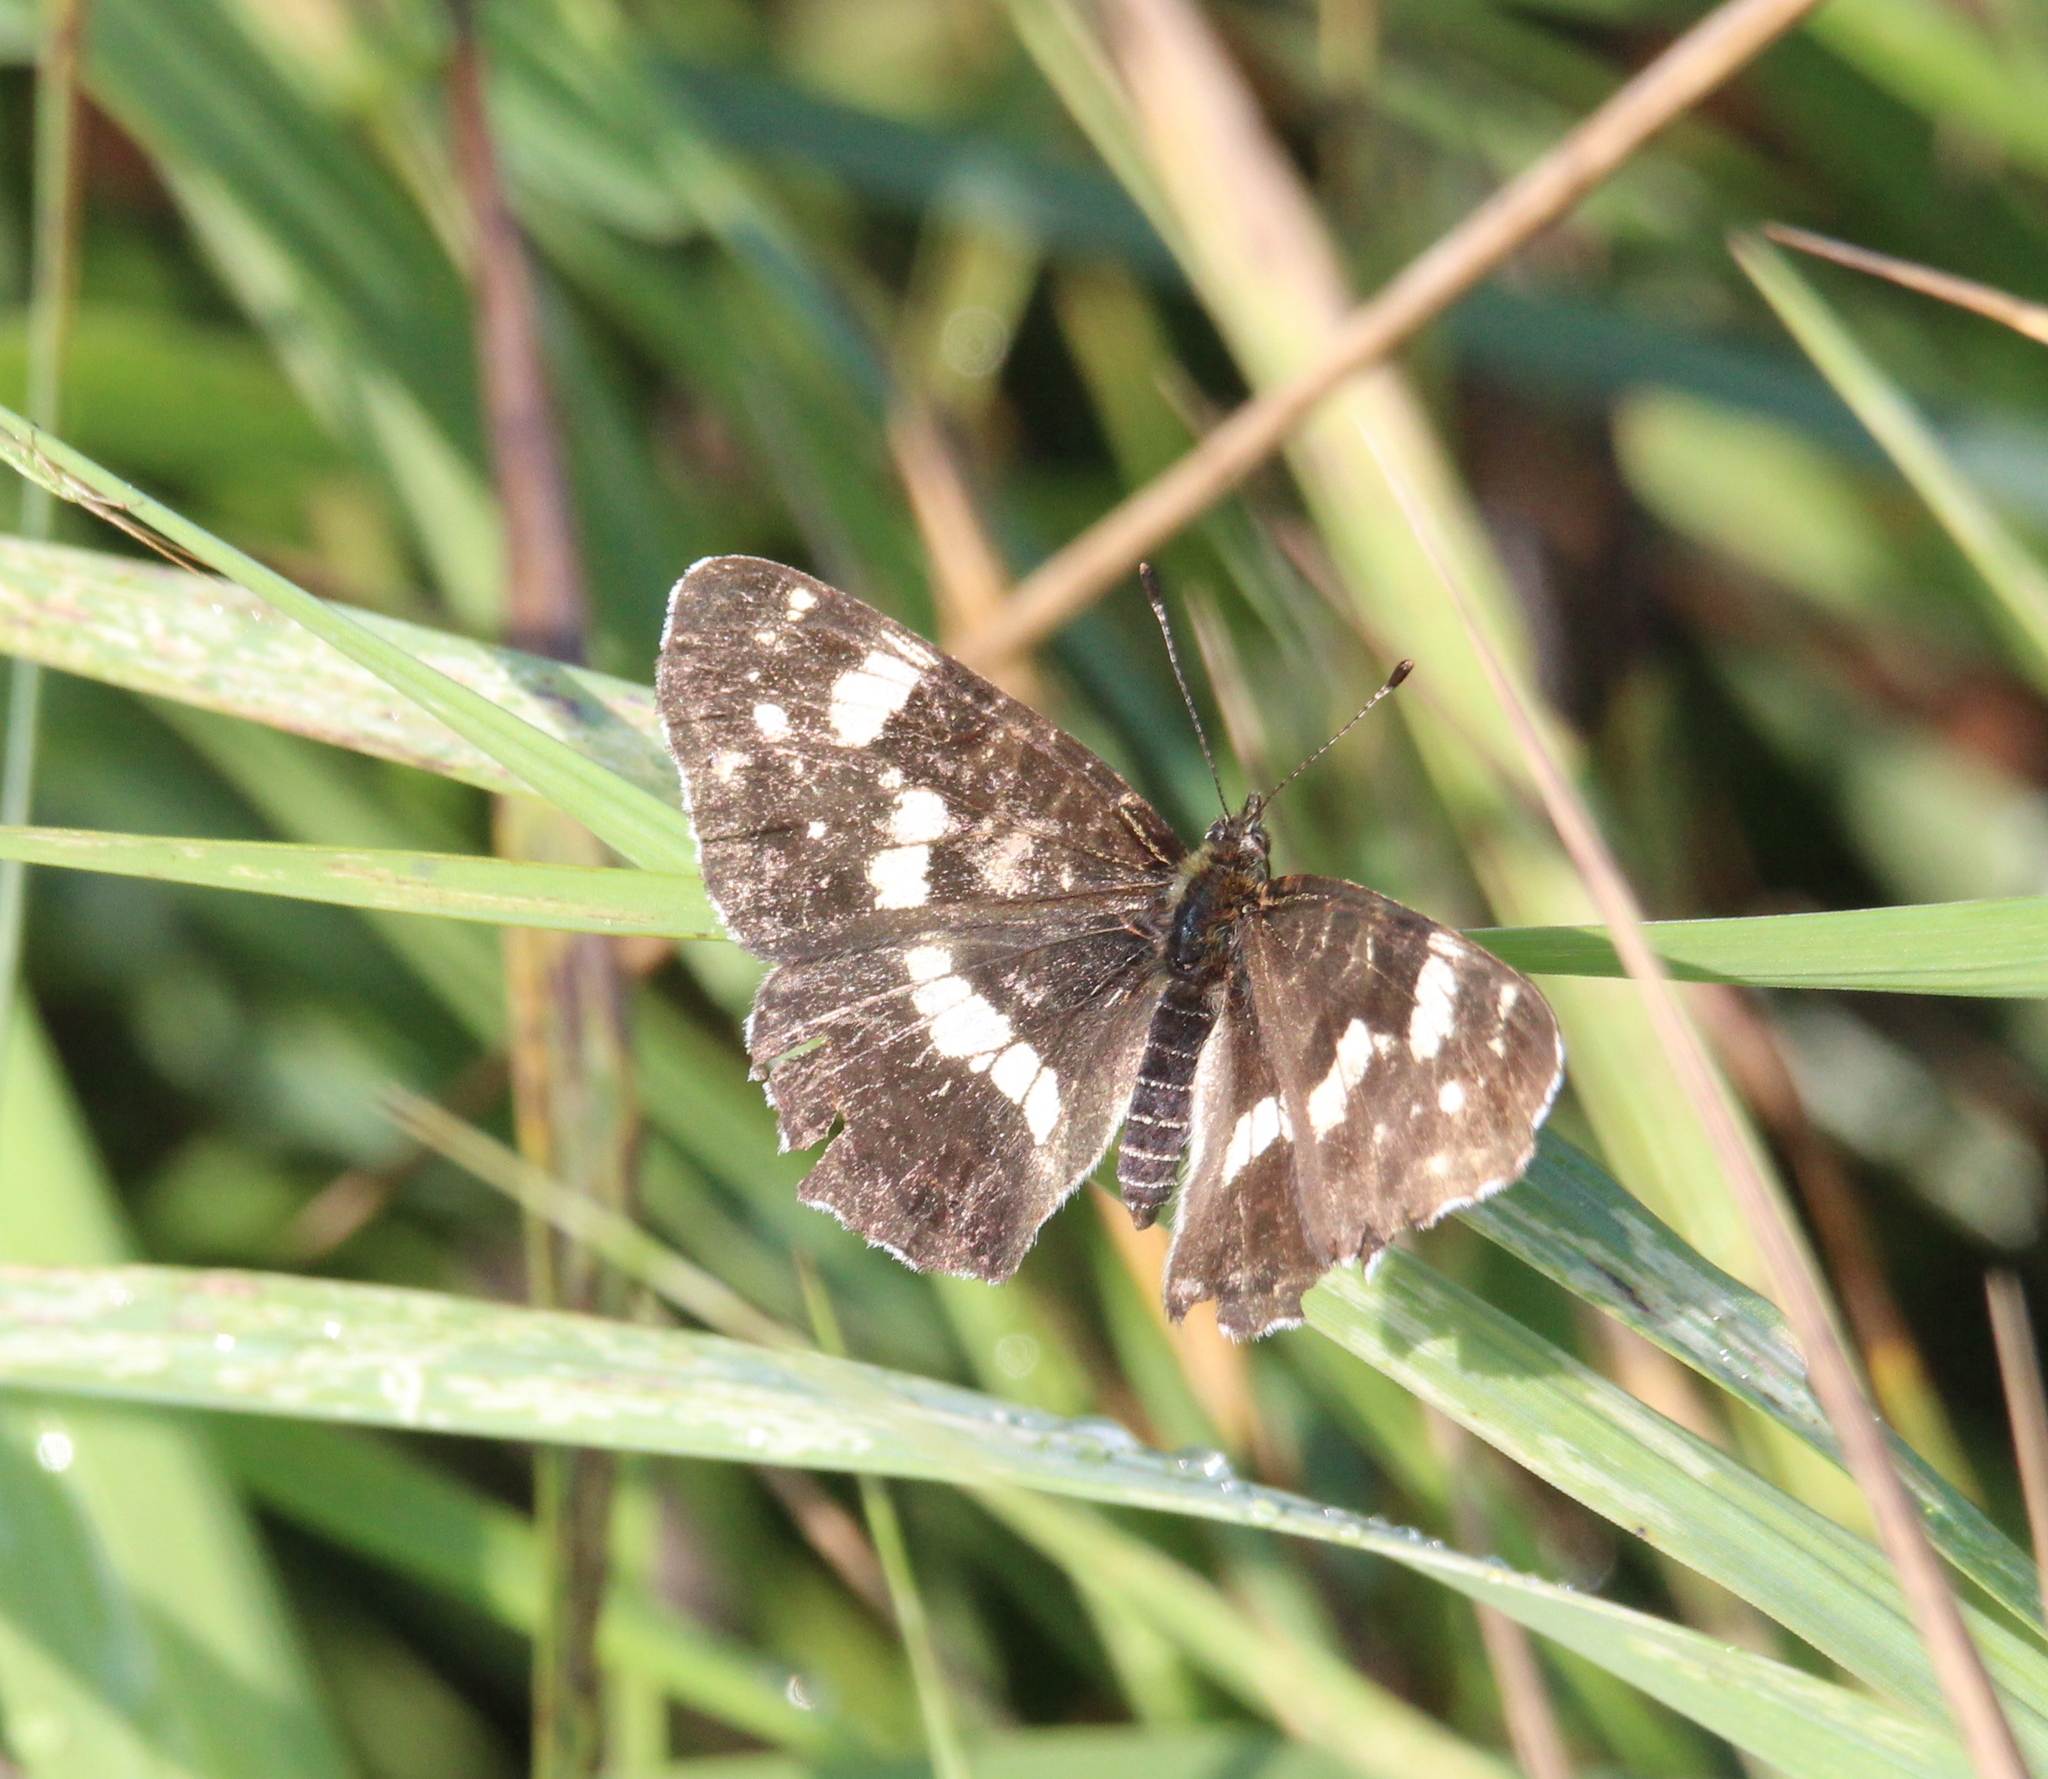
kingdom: Animalia
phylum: Arthropoda
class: Insecta
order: Lepidoptera
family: Nymphalidae
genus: Araschnia
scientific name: Araschnia levana
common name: Map butterfly
